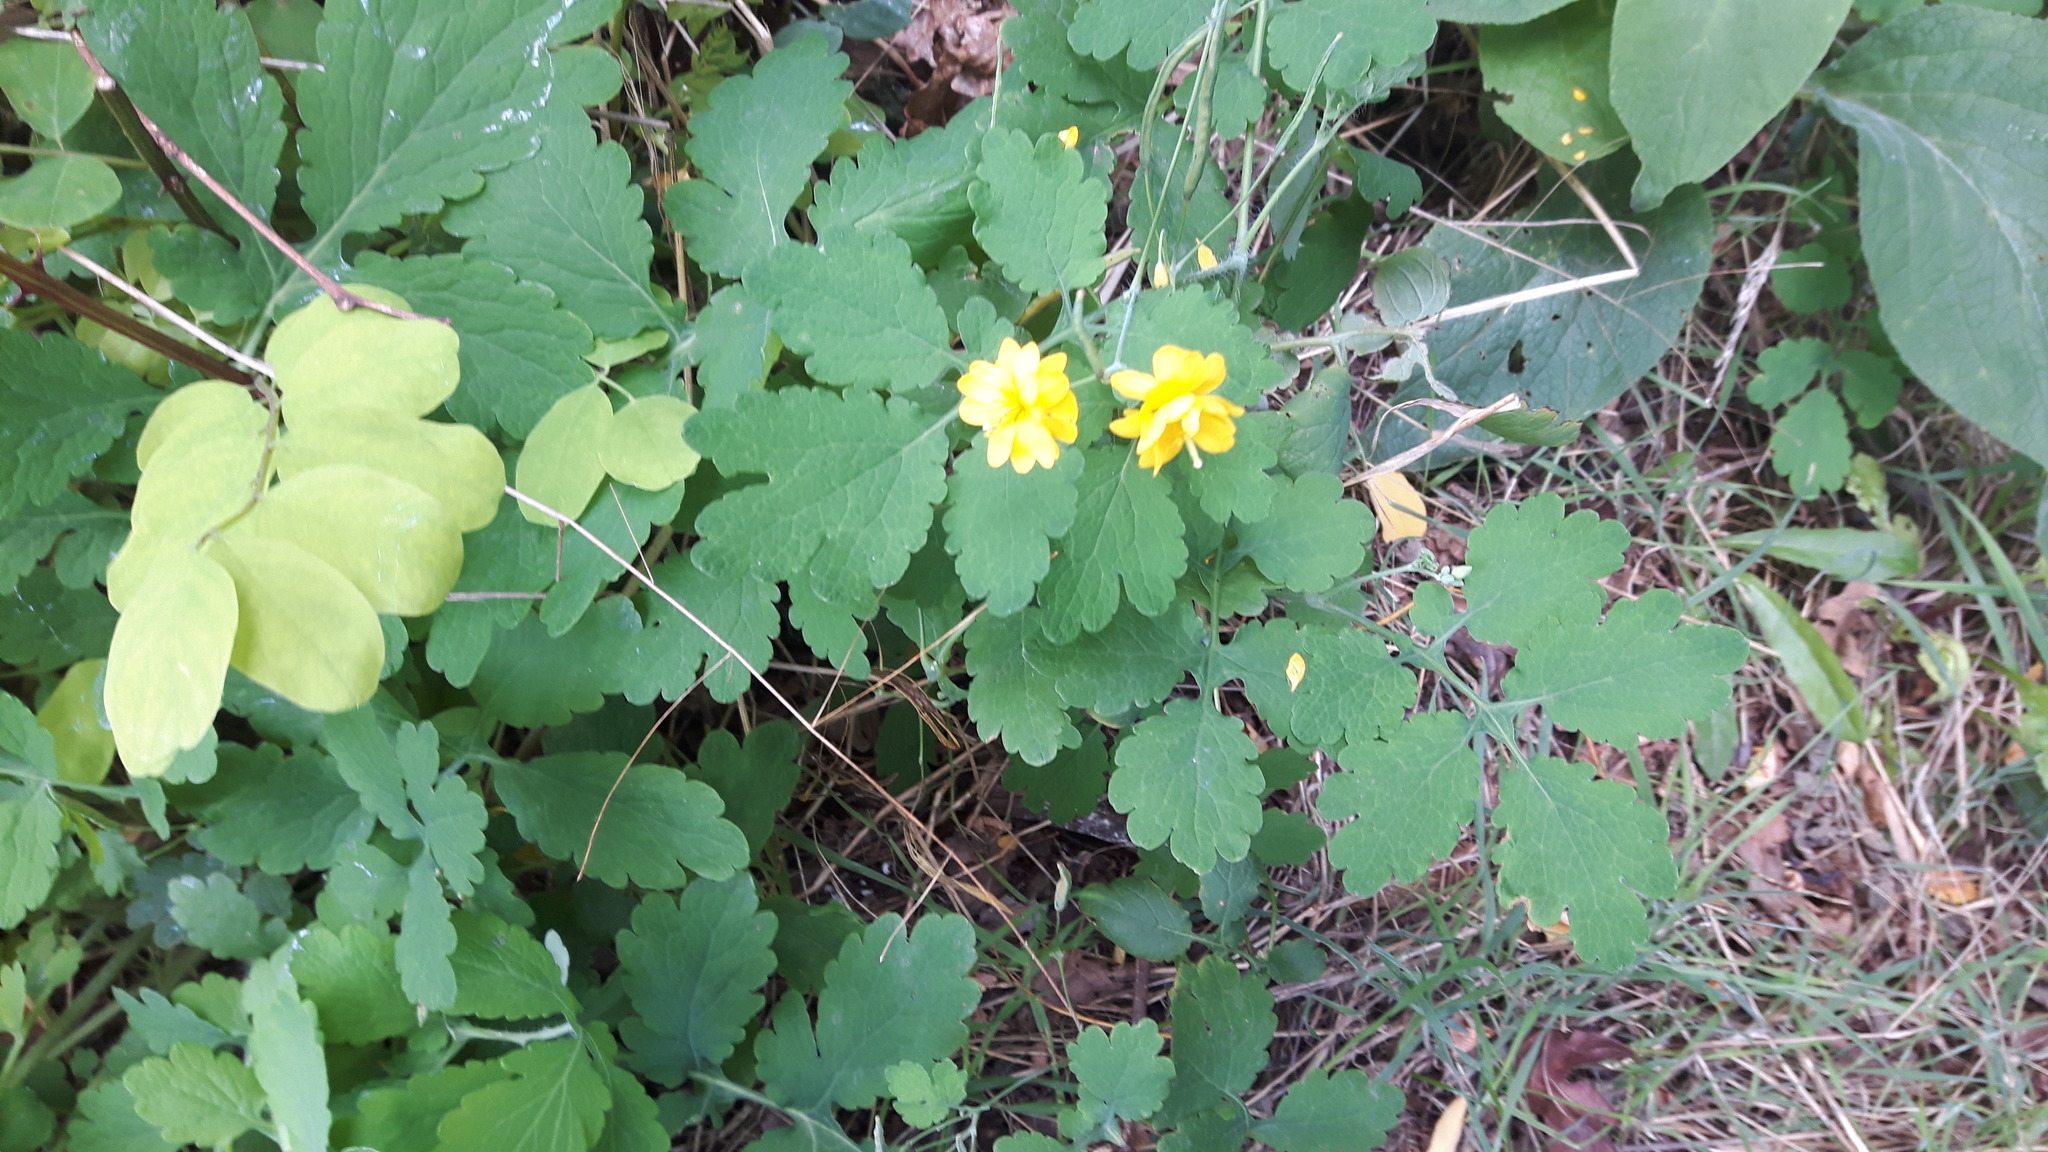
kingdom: Plantae
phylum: Tracheophyta
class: Magnoliopsida
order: Ranunculales
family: Papaveraceae
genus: Chelidonium
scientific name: Chelidonium majus
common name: Greater celandine
